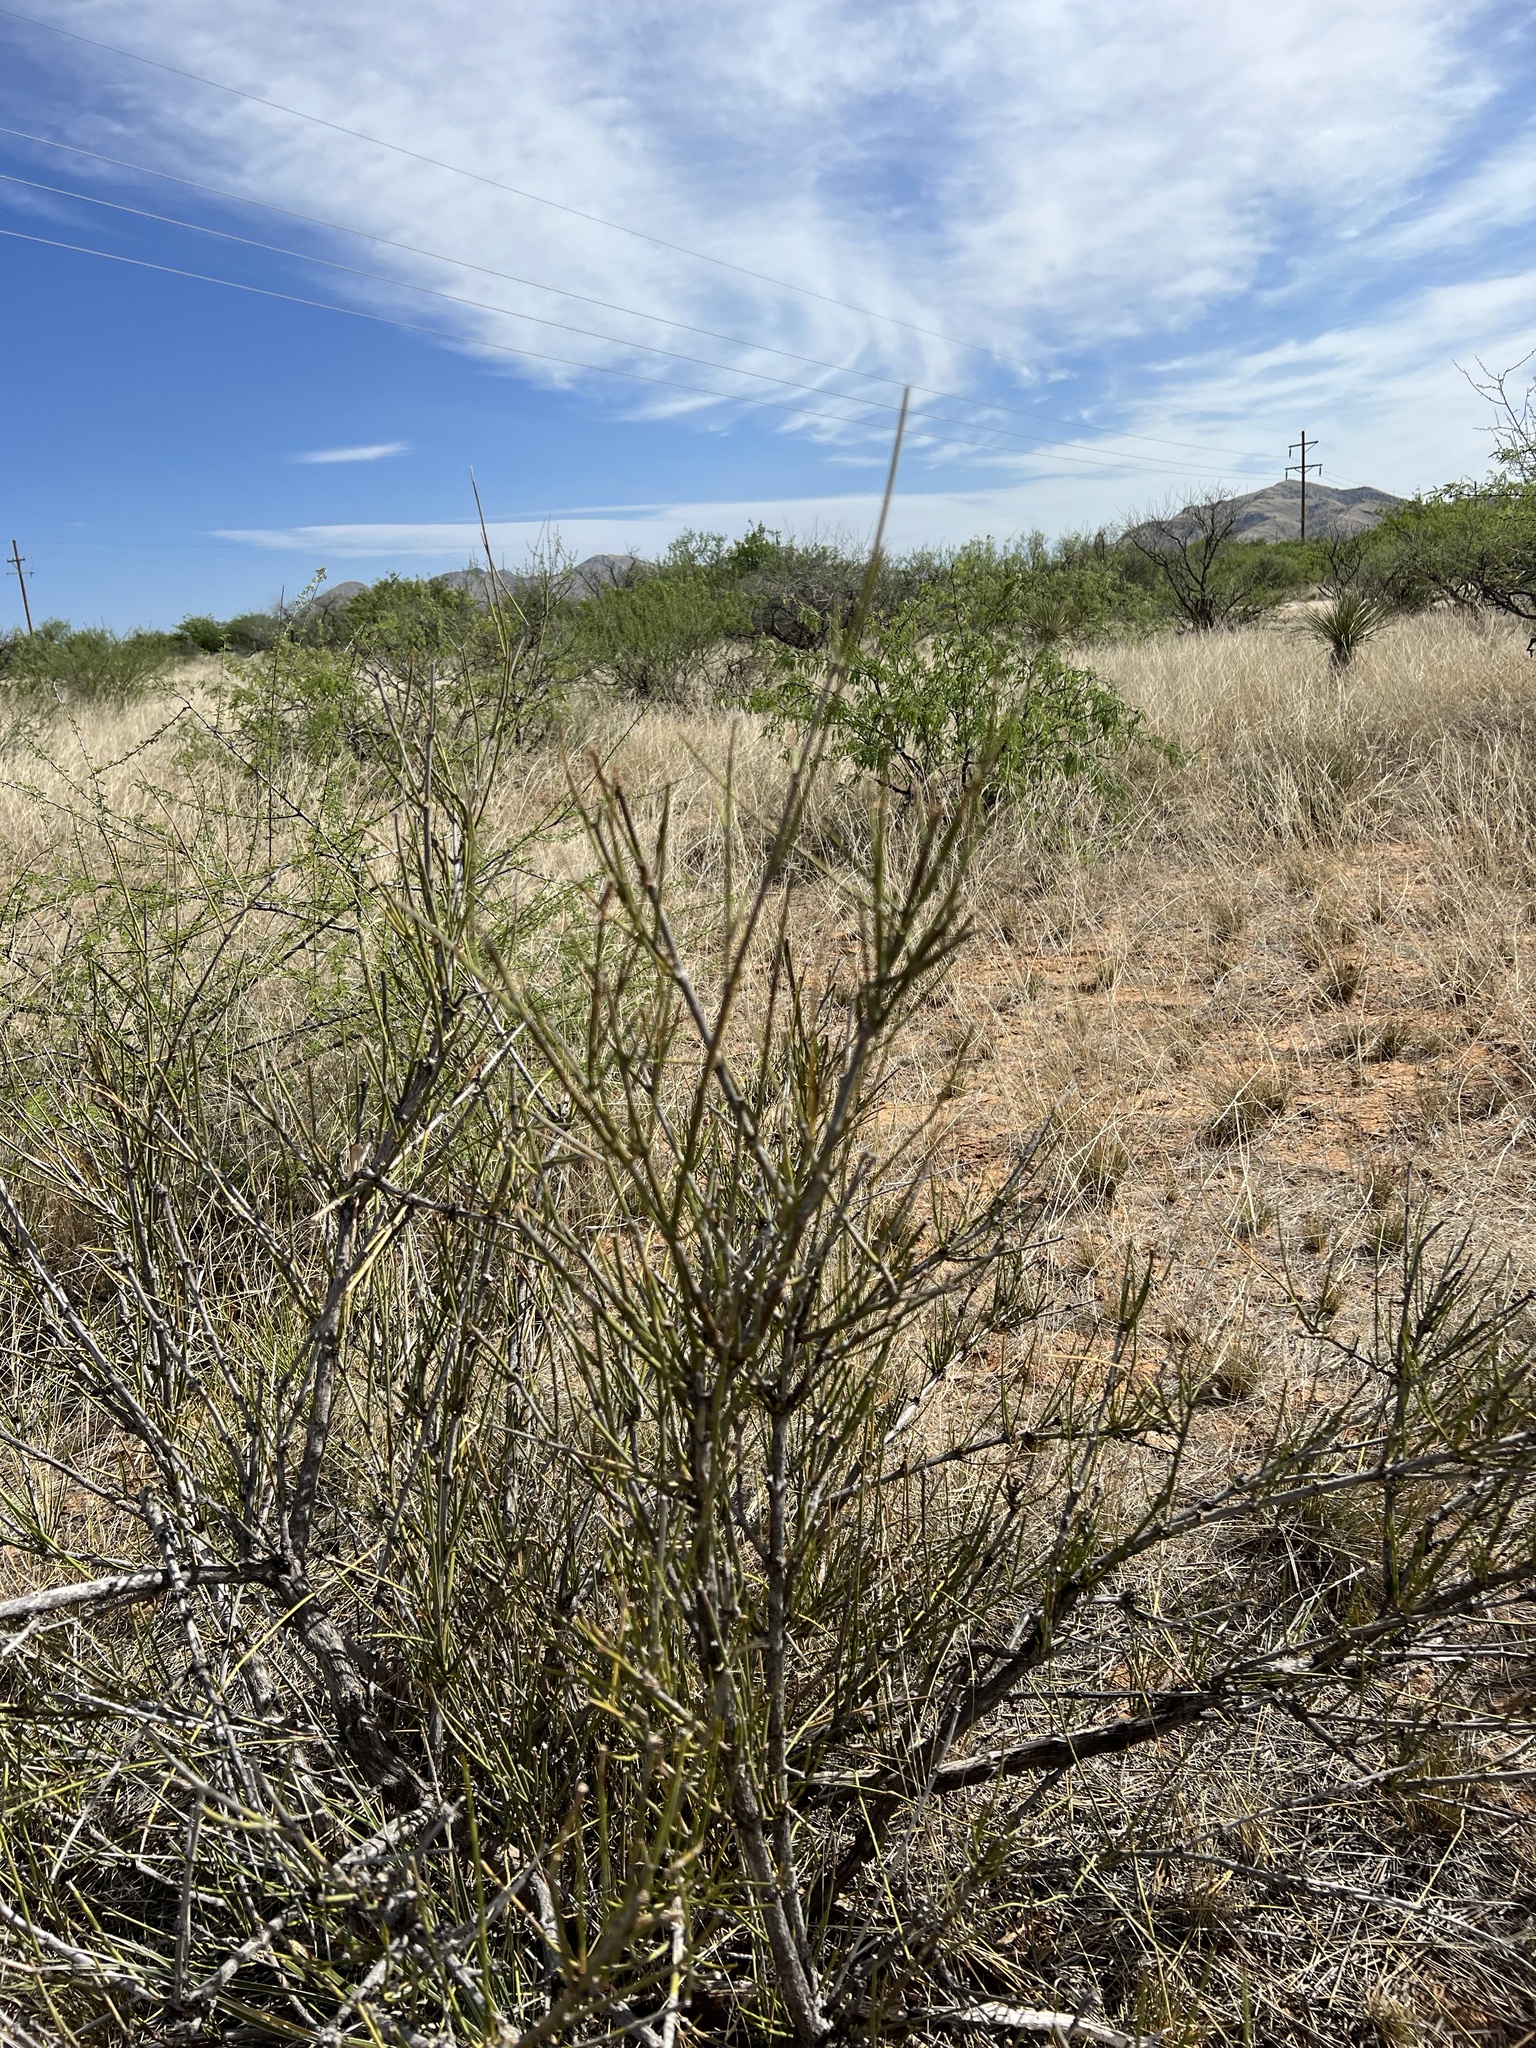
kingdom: Plantae
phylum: Tracheophyta
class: Gnetopsida
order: Ephedrales
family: Ephedraceae
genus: Ephedra
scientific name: Ephedra trifurca
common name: Mexican-tea
